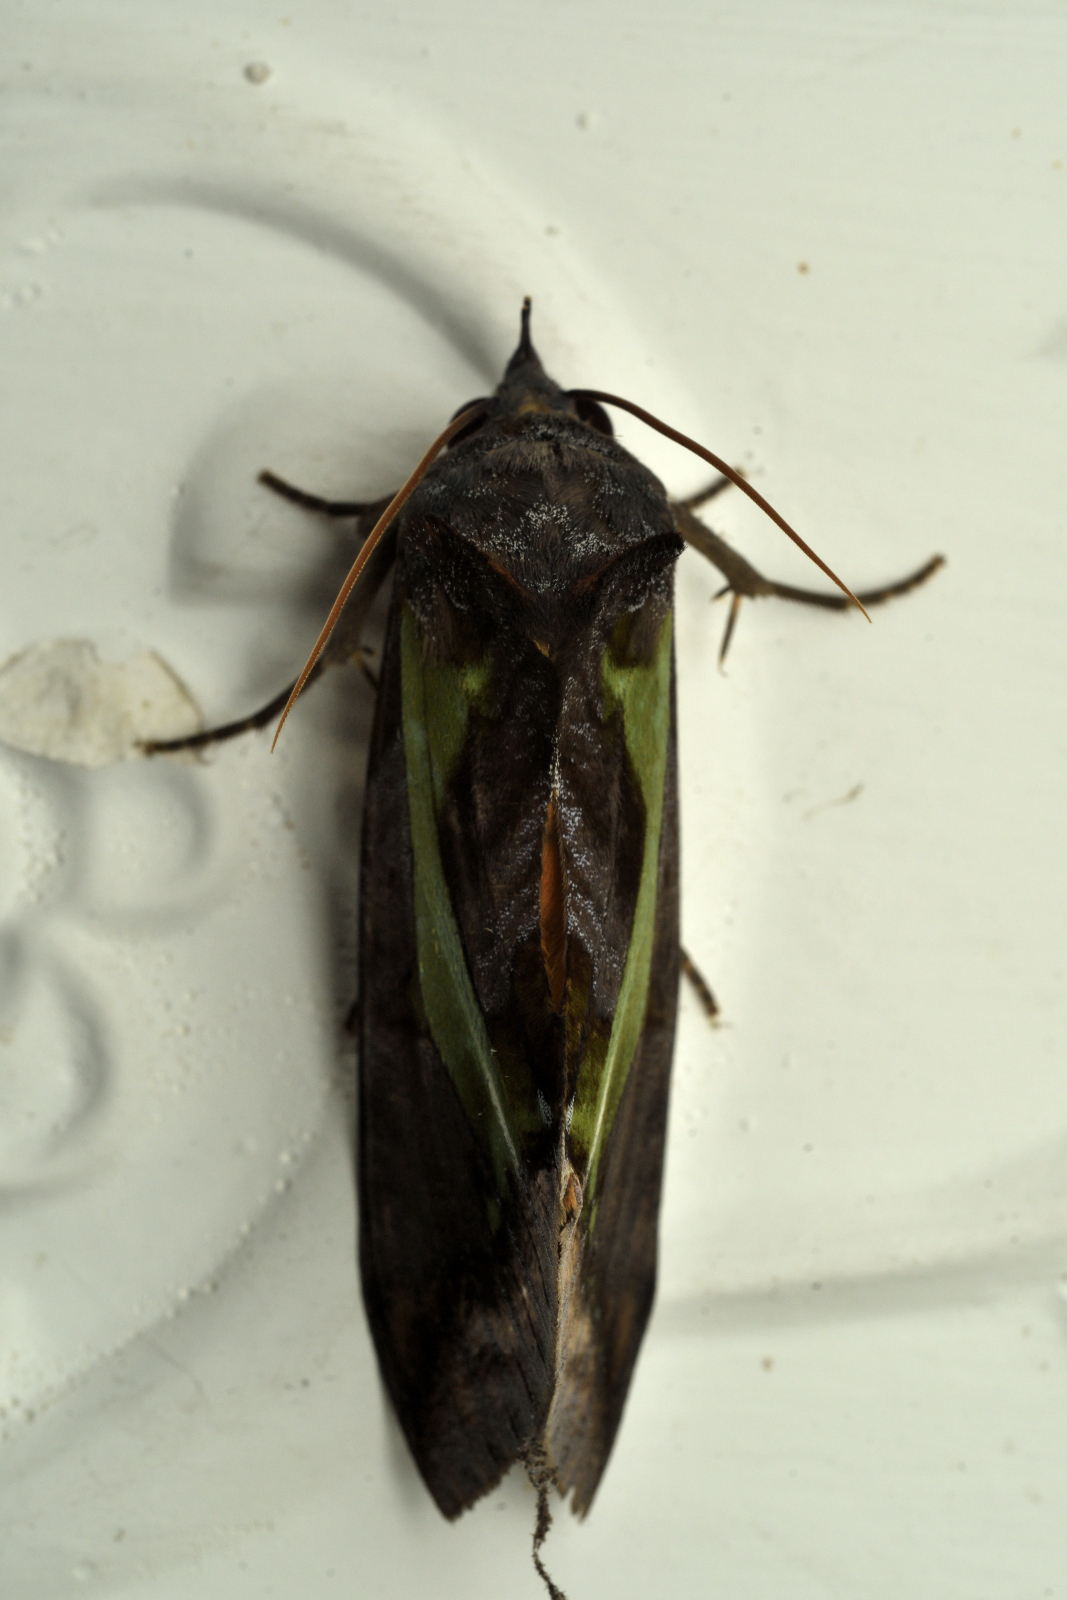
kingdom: Animalia
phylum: Arthropoda
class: Insecta
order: Lepidoptera
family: Erebidae
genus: Eudocima
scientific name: Eudocima homaena
